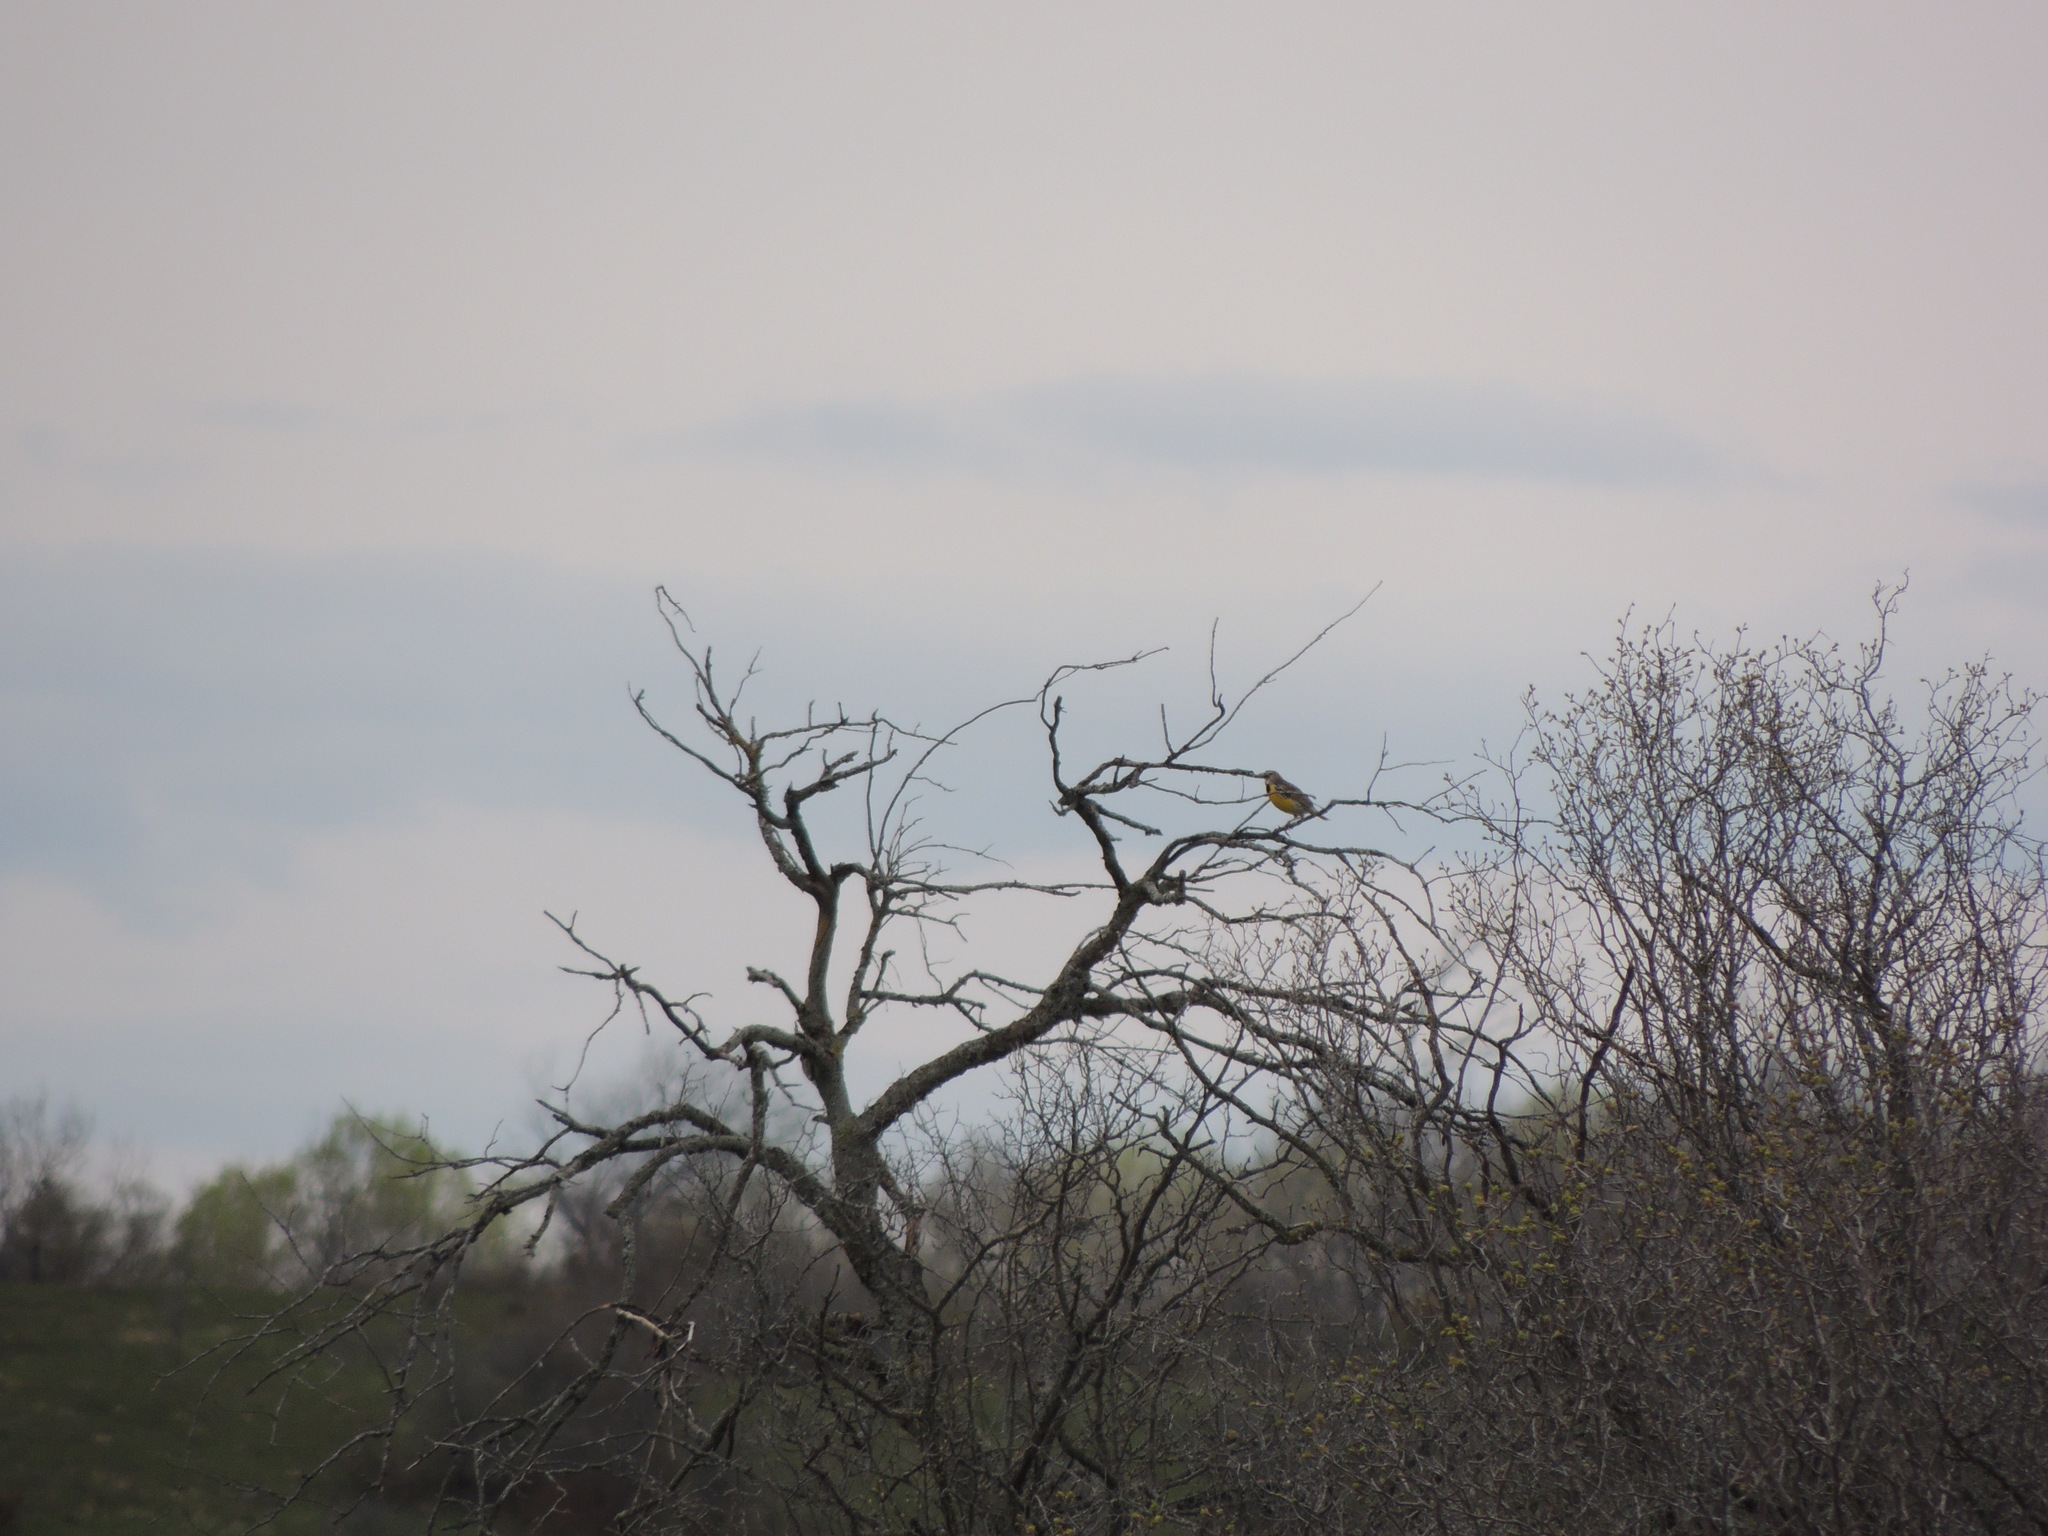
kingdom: Animalia
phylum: Chordata
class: Aves
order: Passeriformes
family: Icteridae
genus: Sturnella
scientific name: Sturnella magna
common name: Eastern meadowlark
